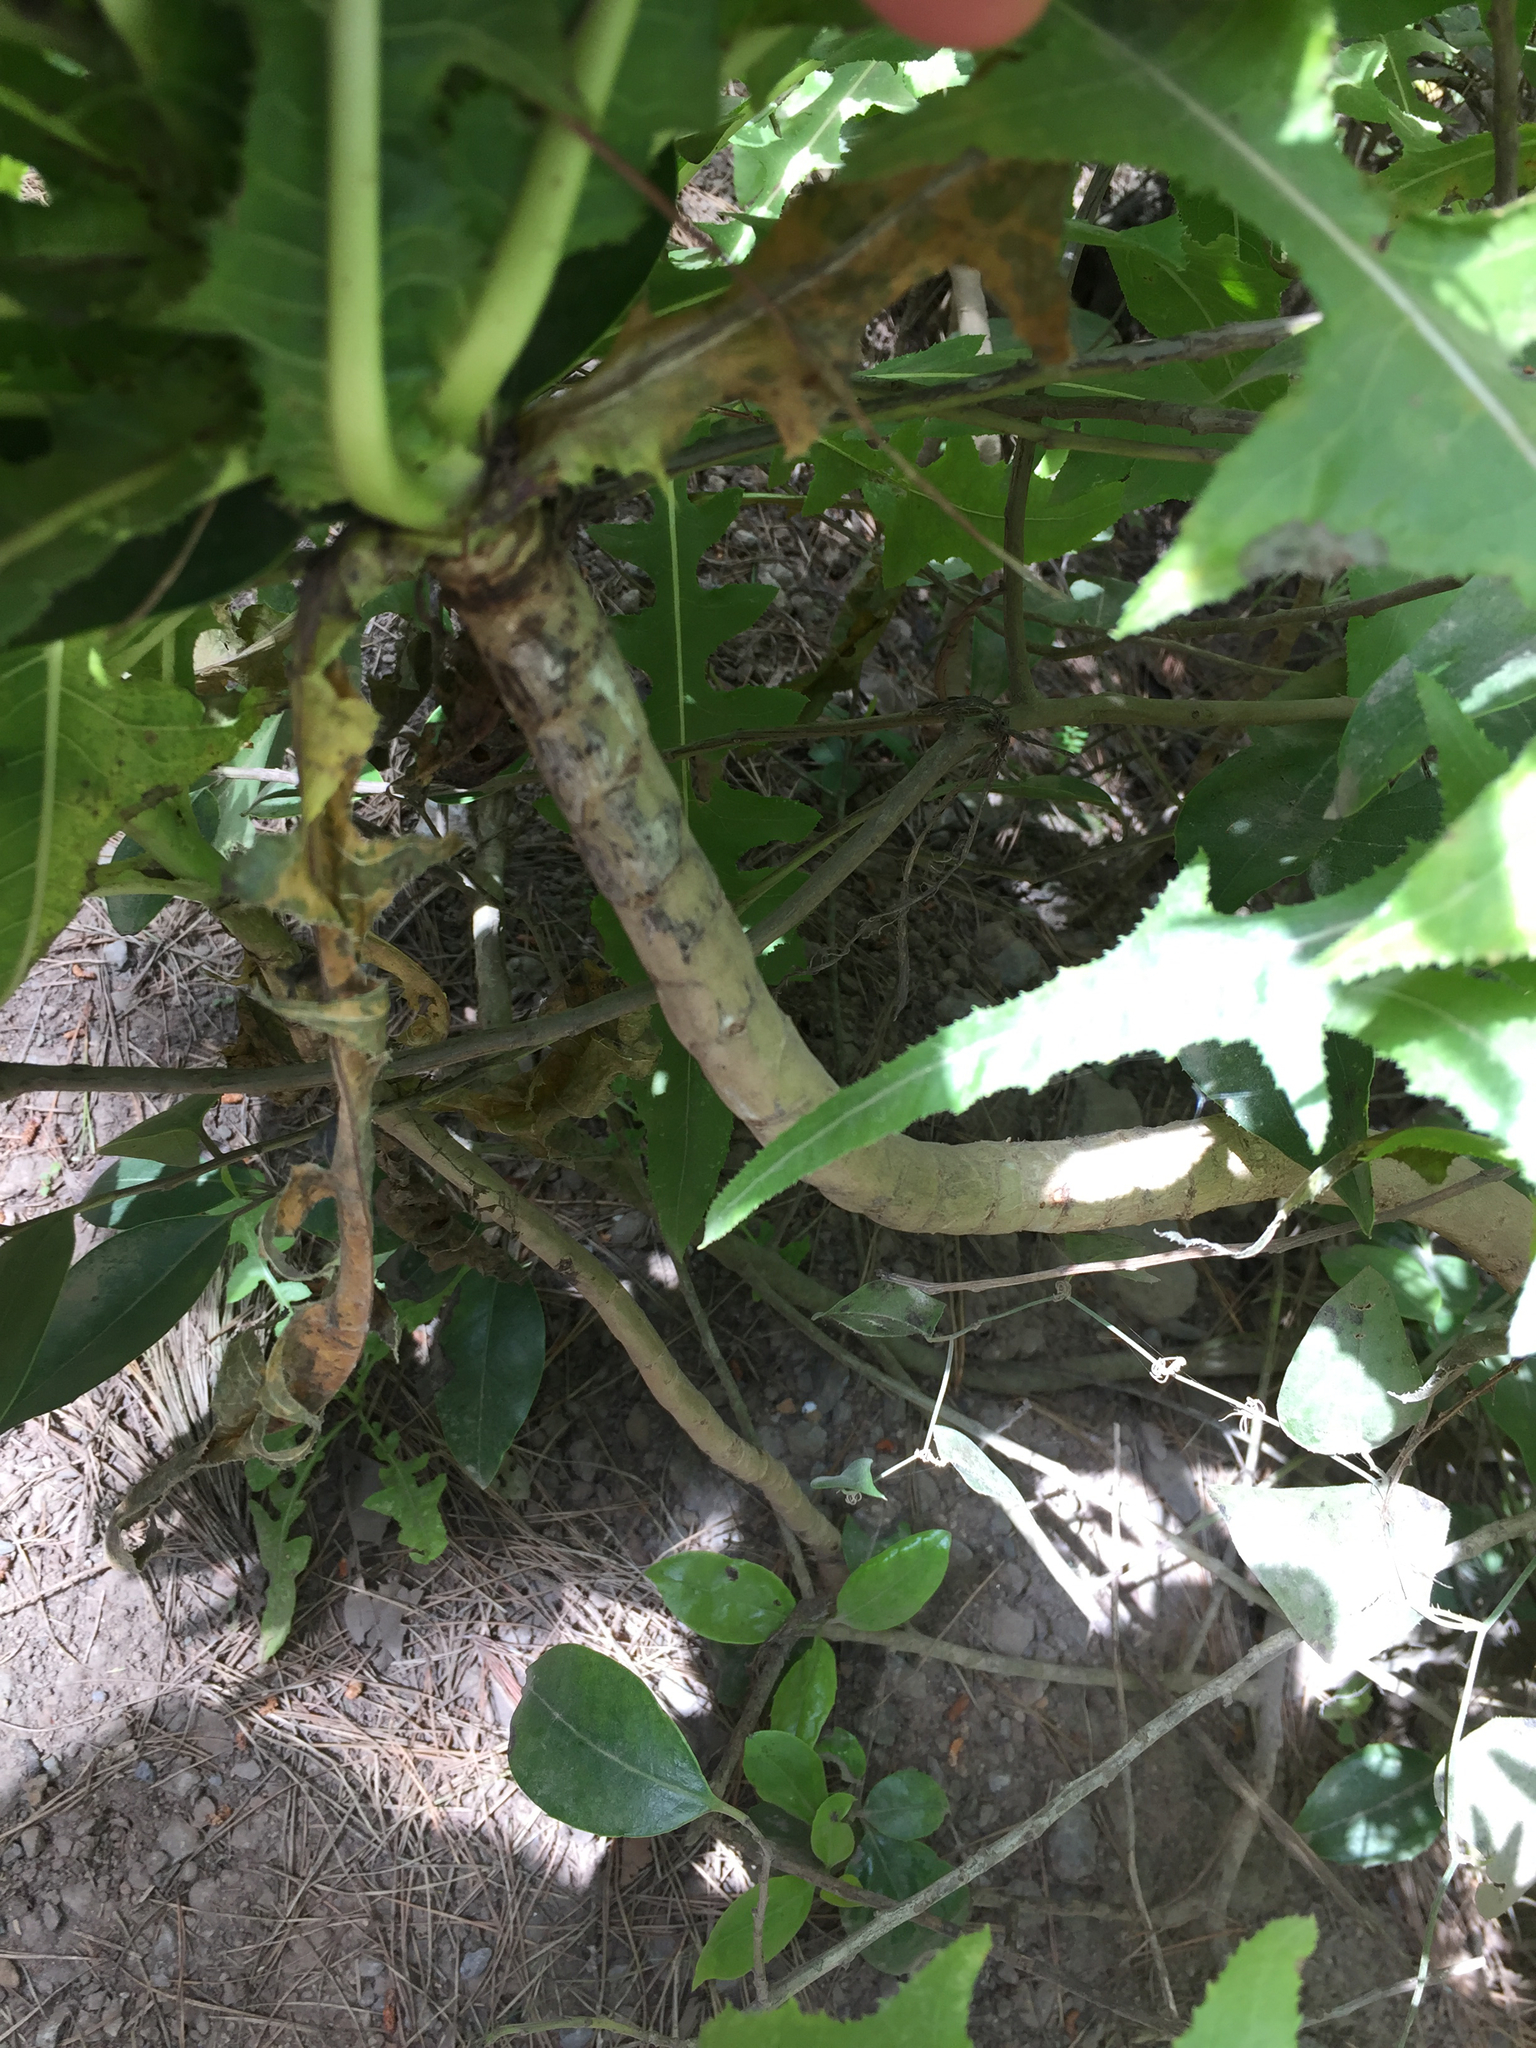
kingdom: Plantae
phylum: Tracheophyta
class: Magnoliopsida
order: Asterales
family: Asteraceae
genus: Sonchus
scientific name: Sonchus congestus
